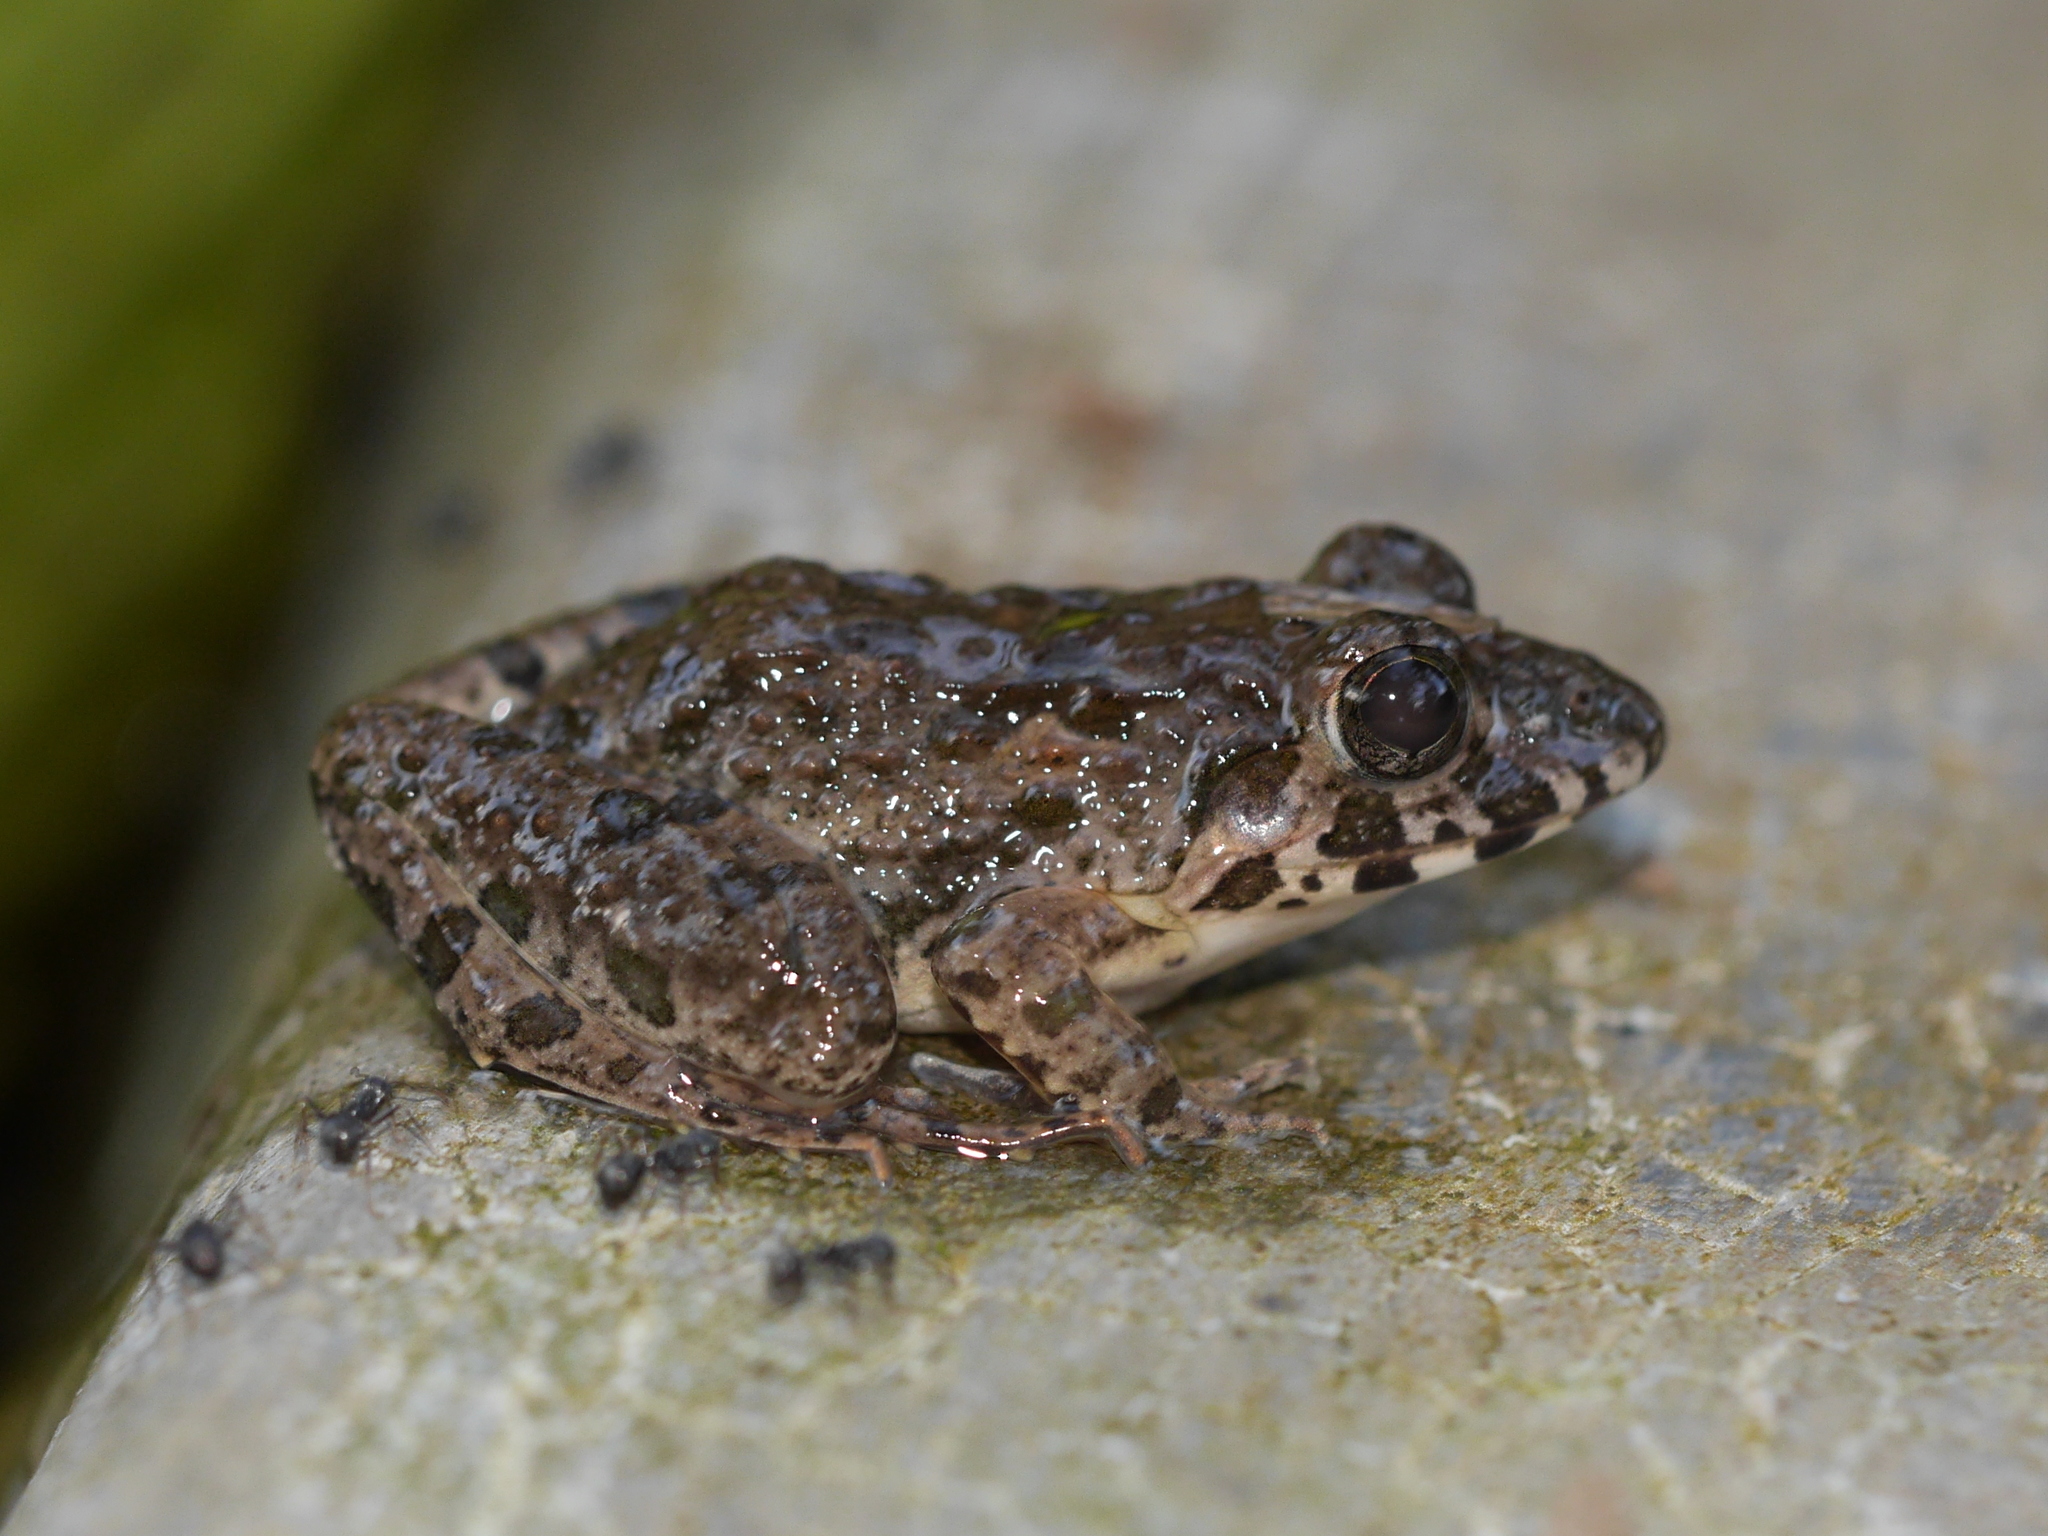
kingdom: Animalia
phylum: Chordata
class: Amphibia
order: Anura
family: Dicroglossidae
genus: Fejervarya
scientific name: Fejervarya limnocharis
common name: Asian grass frog/common pond frog/field frog/grass frog/indian rice frog
